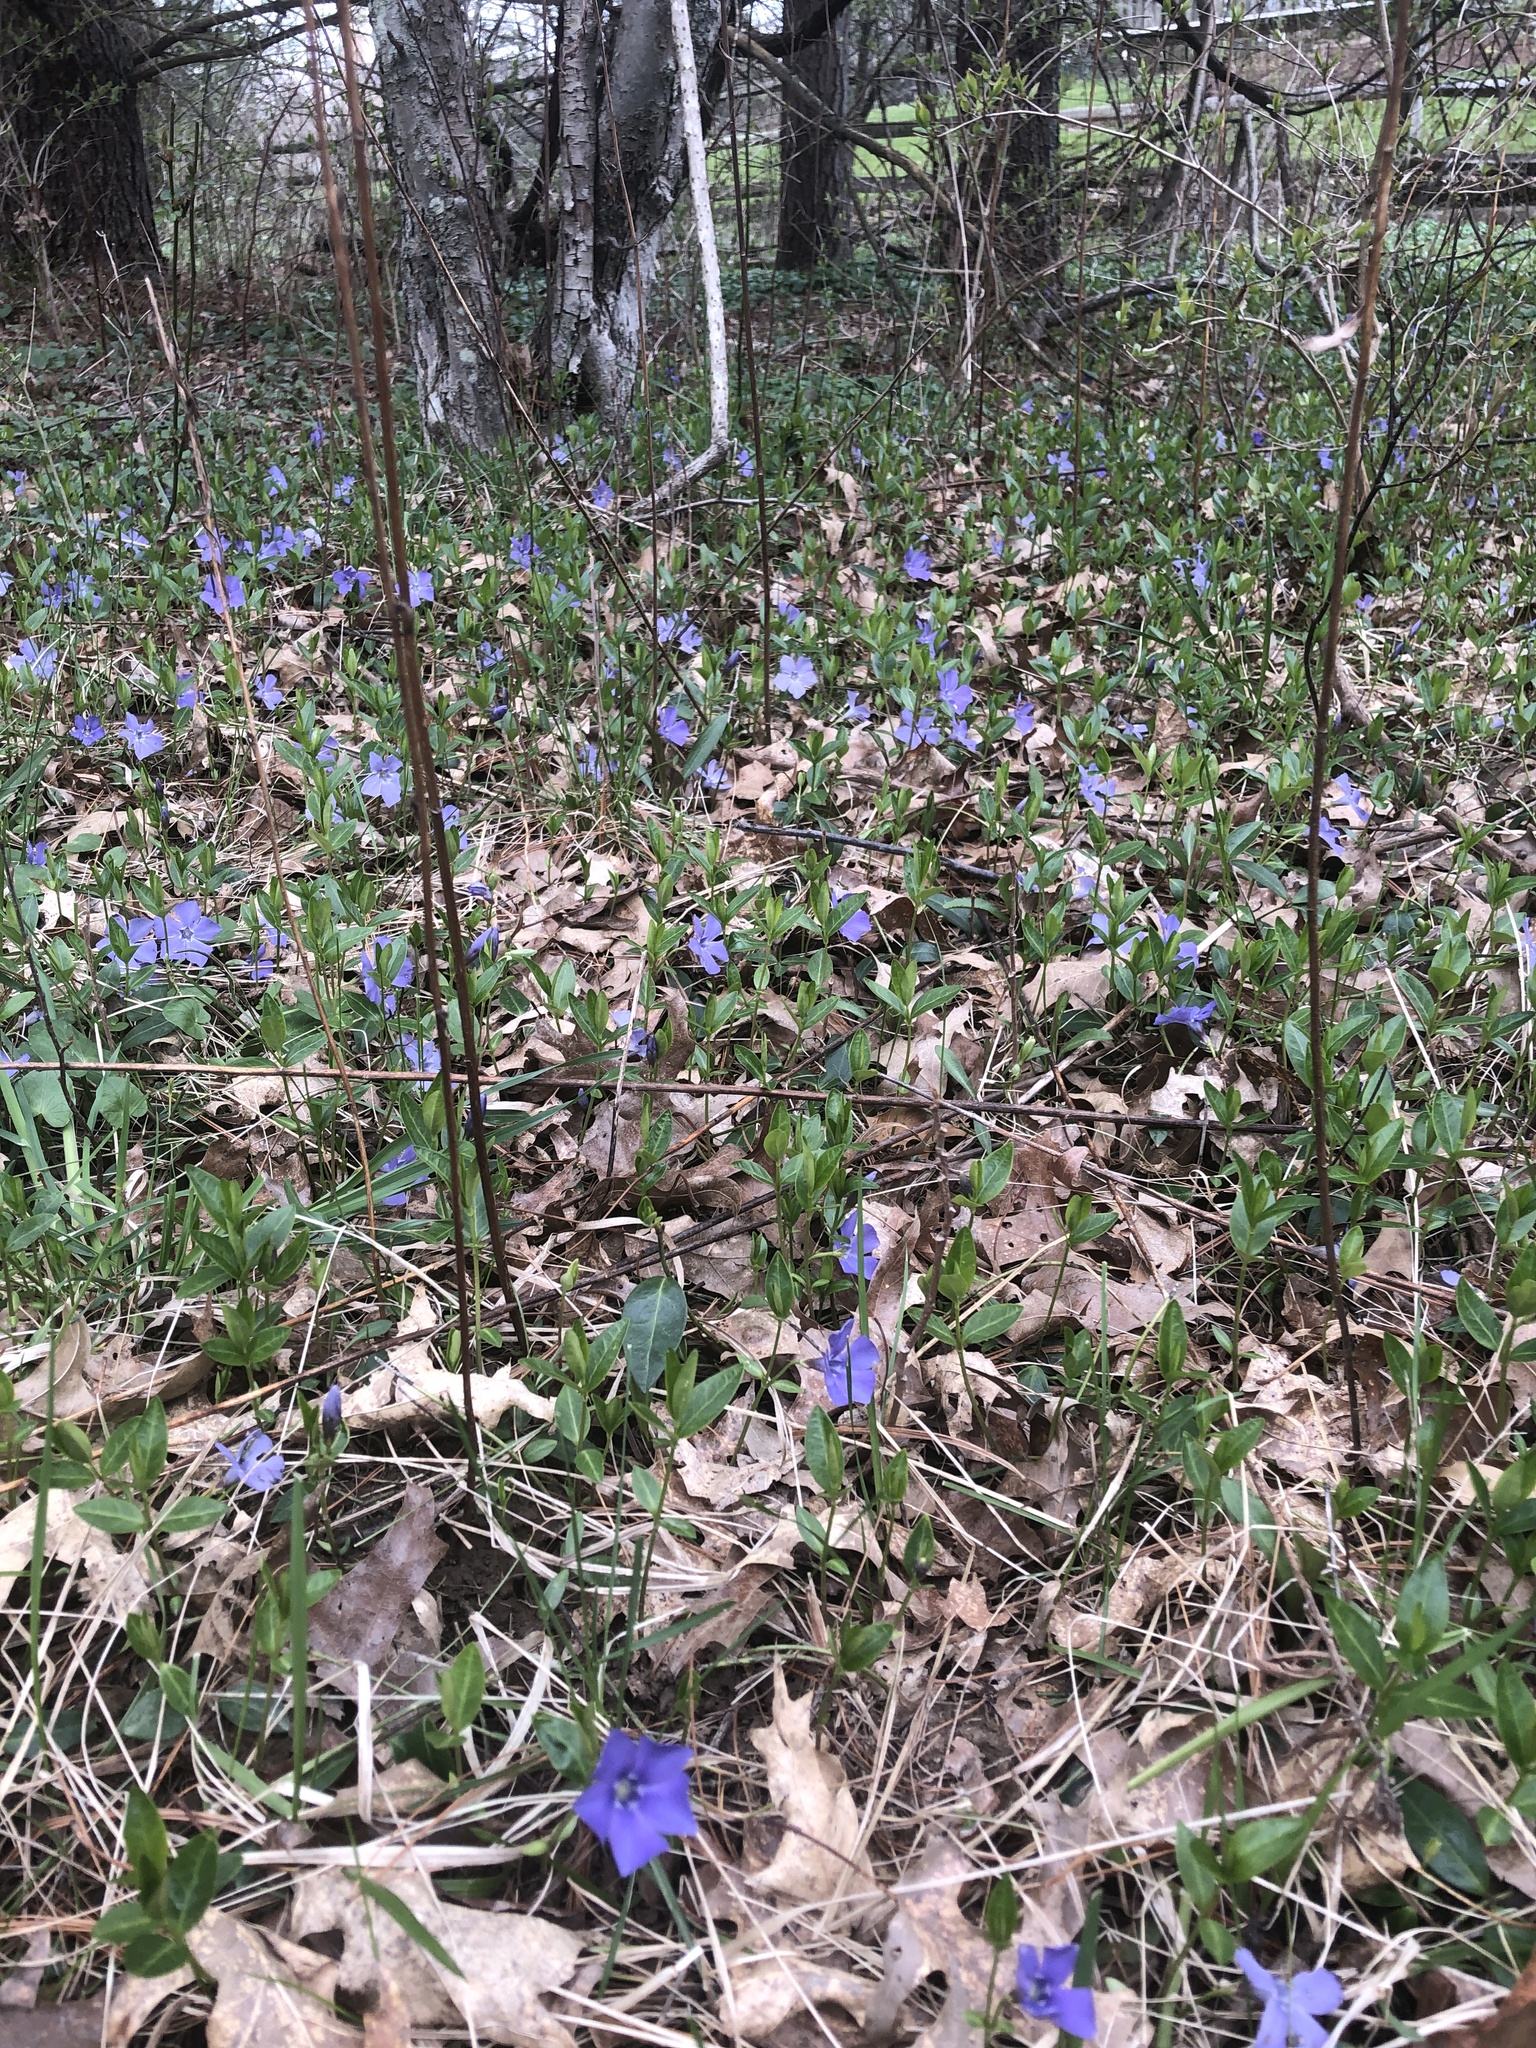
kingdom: Plantae
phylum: Tracheophyta
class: Magnoliopsida
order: Gentianales
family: Apocynaceae
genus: Vinca
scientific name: Vinca minor
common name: Lesser periwinkle
